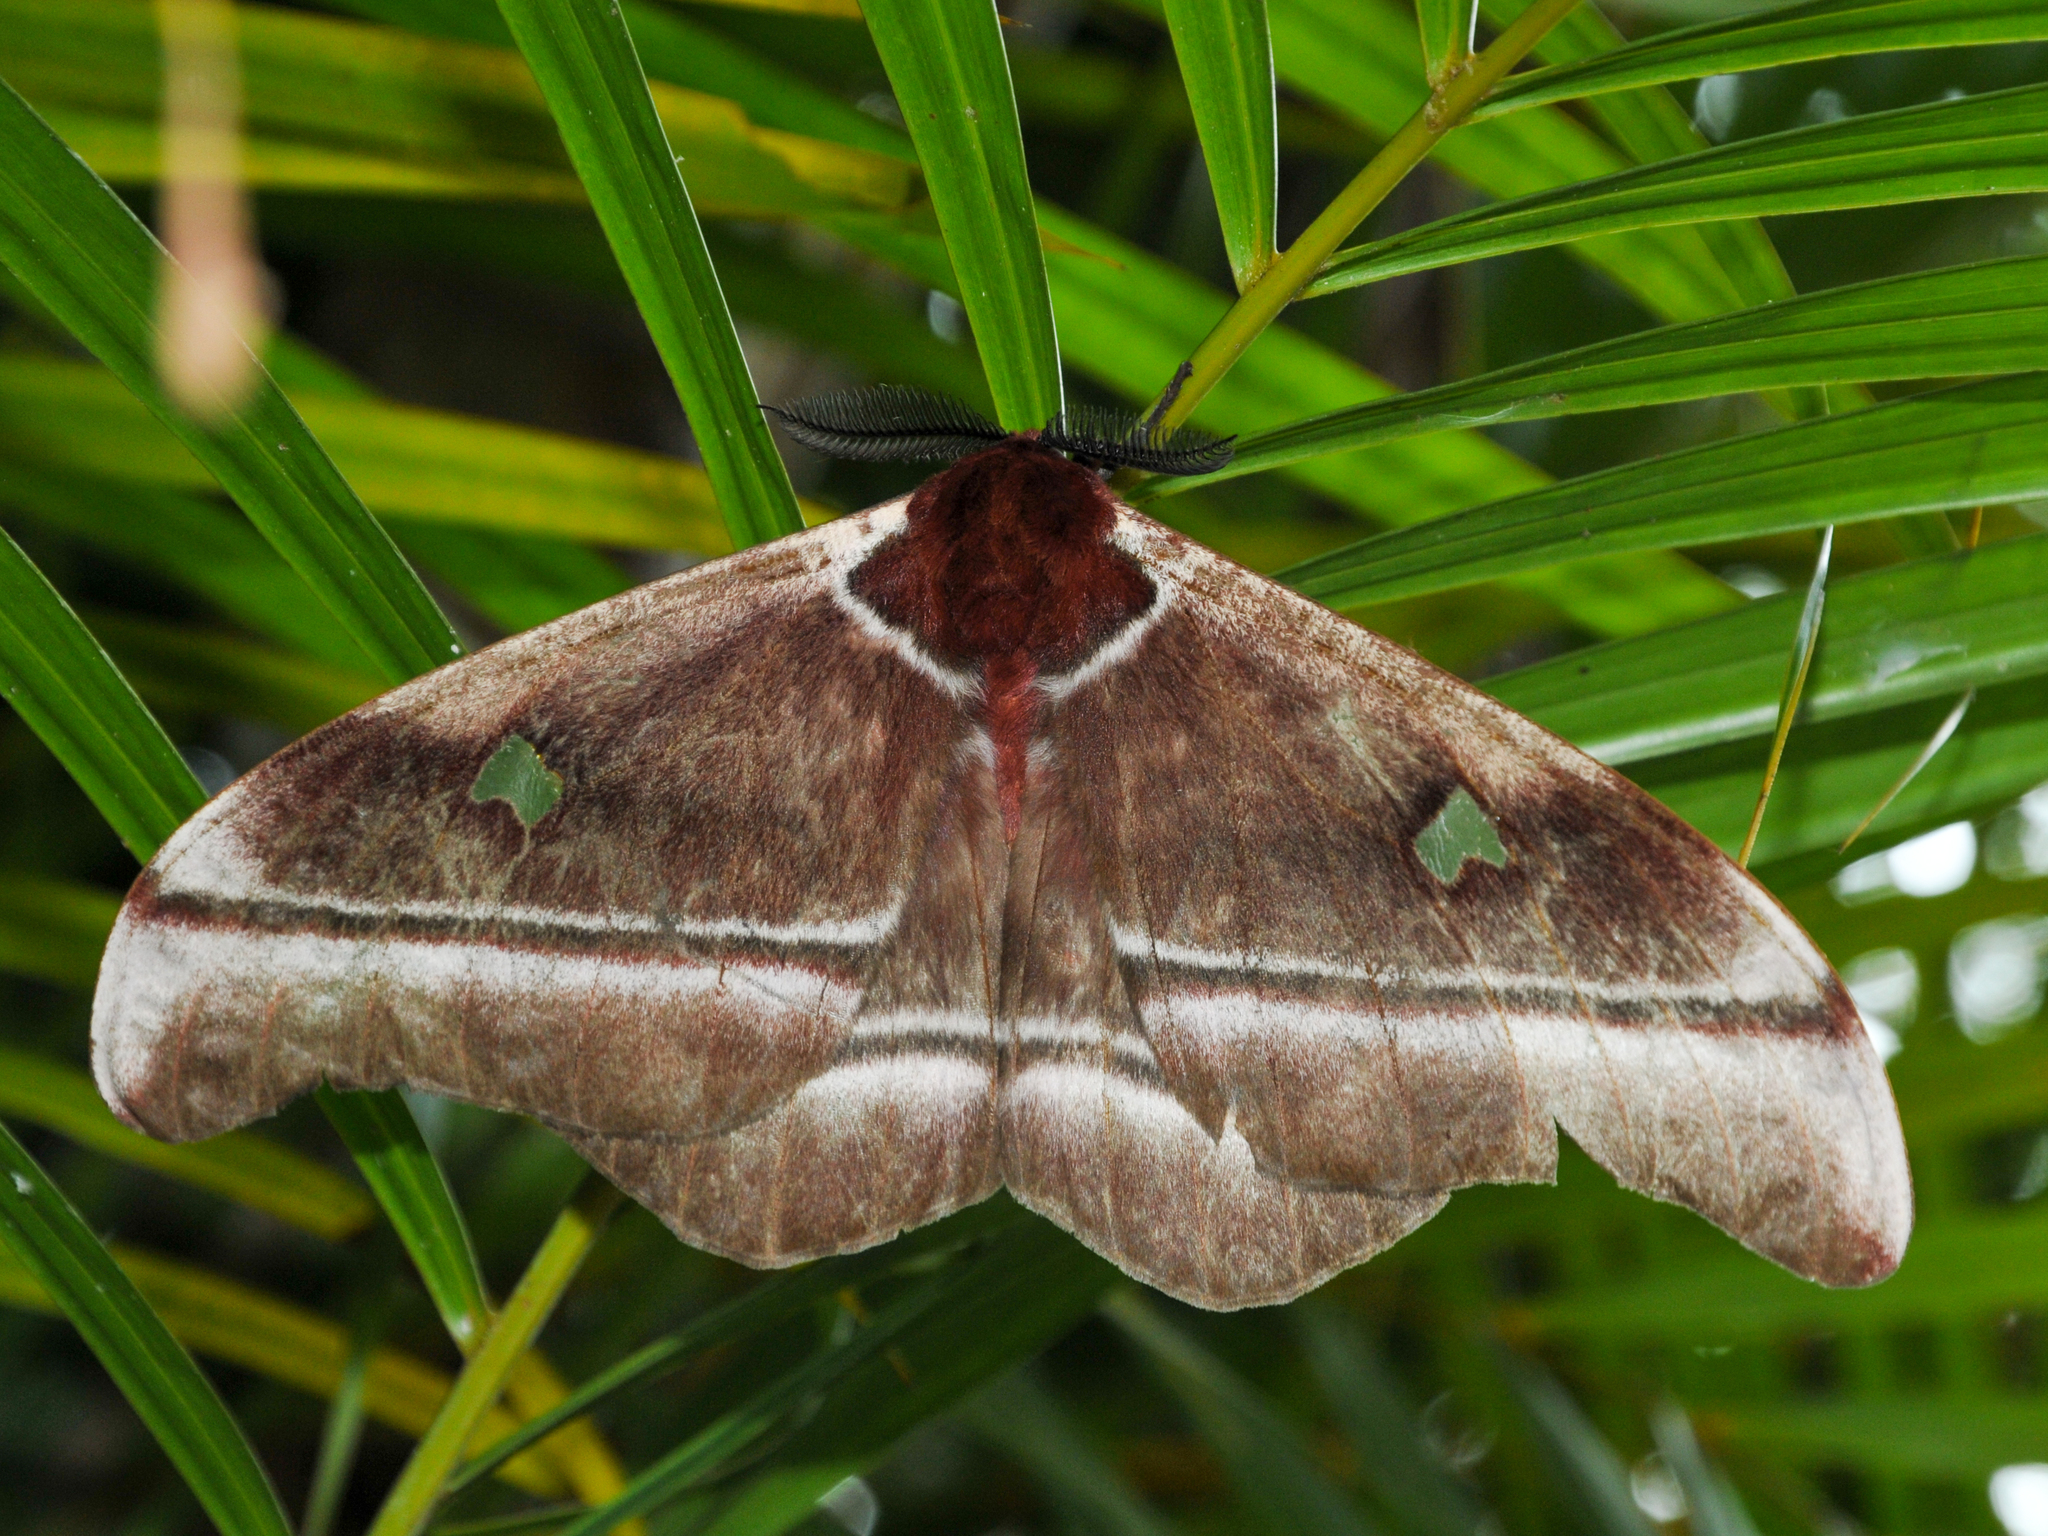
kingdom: Animalia
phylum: Arthropoda
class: Insecta
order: Lepidoptera
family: Saturniidae
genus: Bunaea
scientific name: Bunaea aslauga
